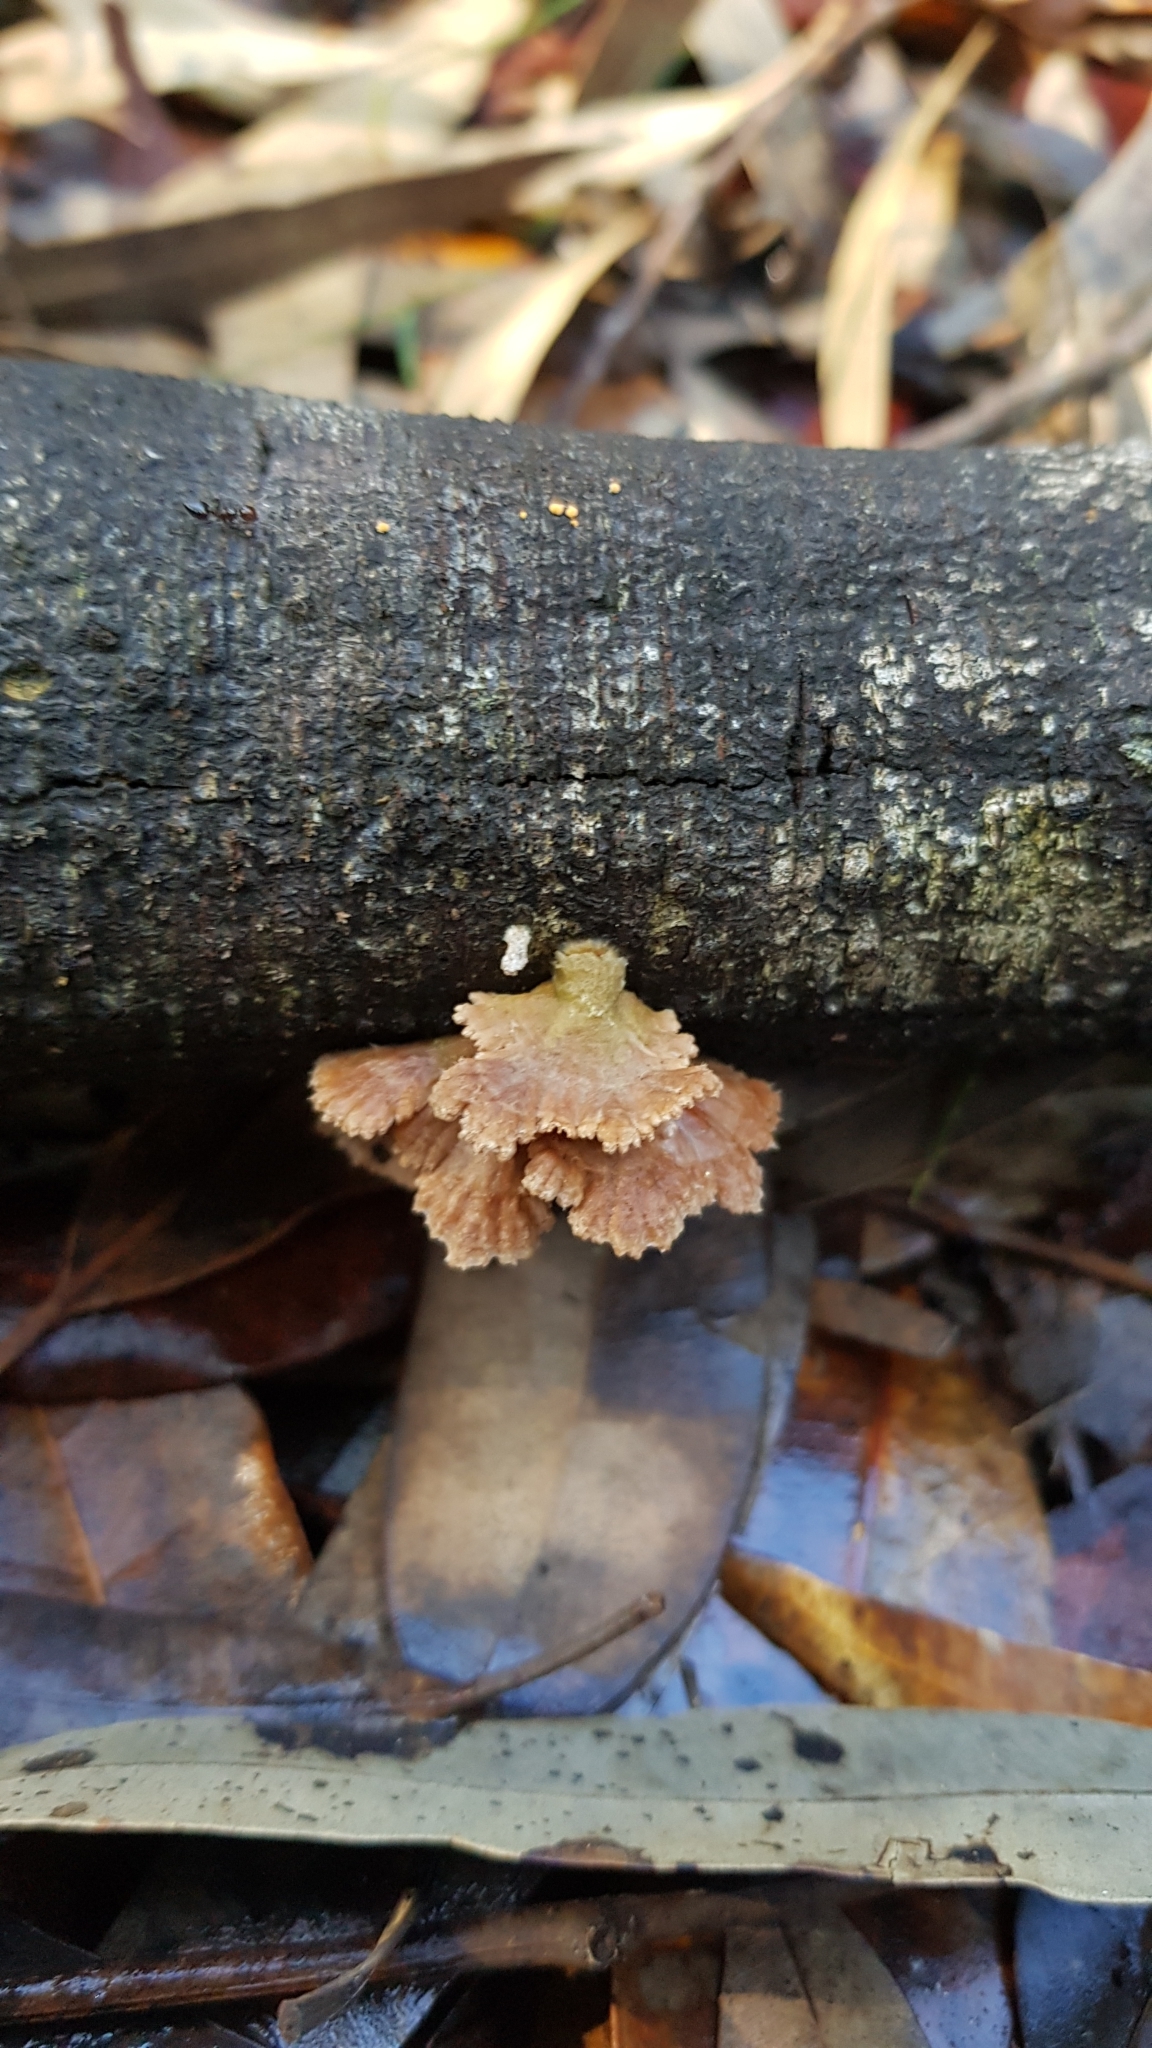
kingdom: Fungi
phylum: Basidiomycota
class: Agaricomycetes
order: Agaricales
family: Schizophyllaceae
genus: Schizophyllum
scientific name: Schizophyllum commune
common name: Common porecrust
